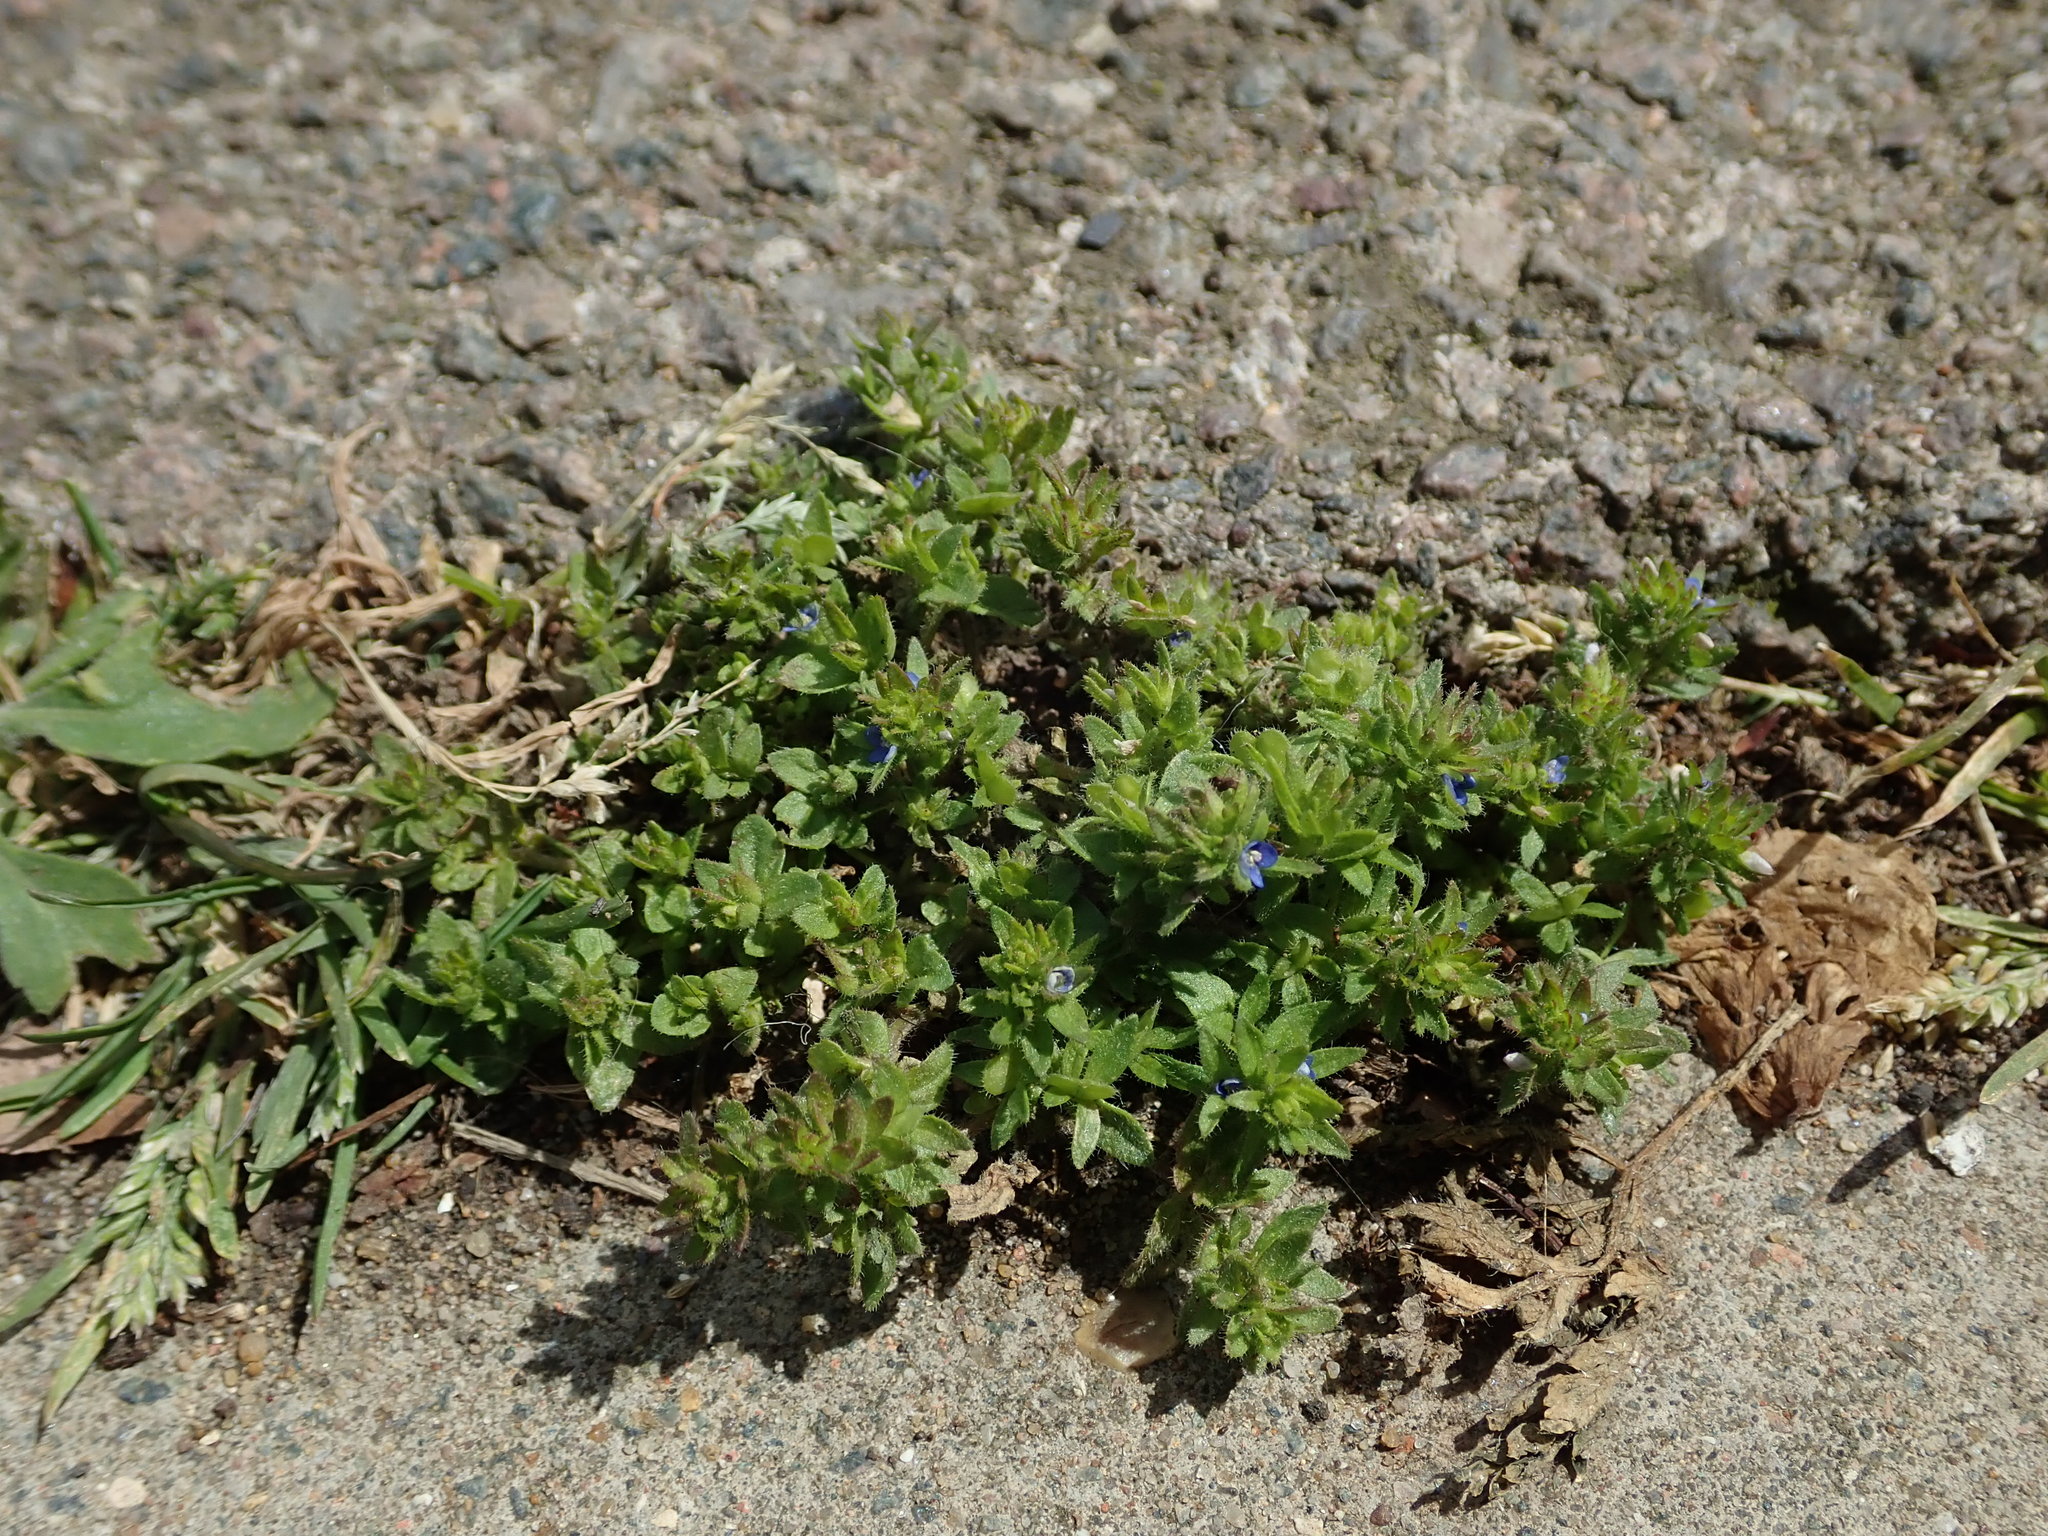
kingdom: Plantae
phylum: Tracheophyta
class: Magnoliopsida
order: Lamiales
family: Plantaginaceae
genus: Veronica
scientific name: Veronica arvensis
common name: Corn speedwell
